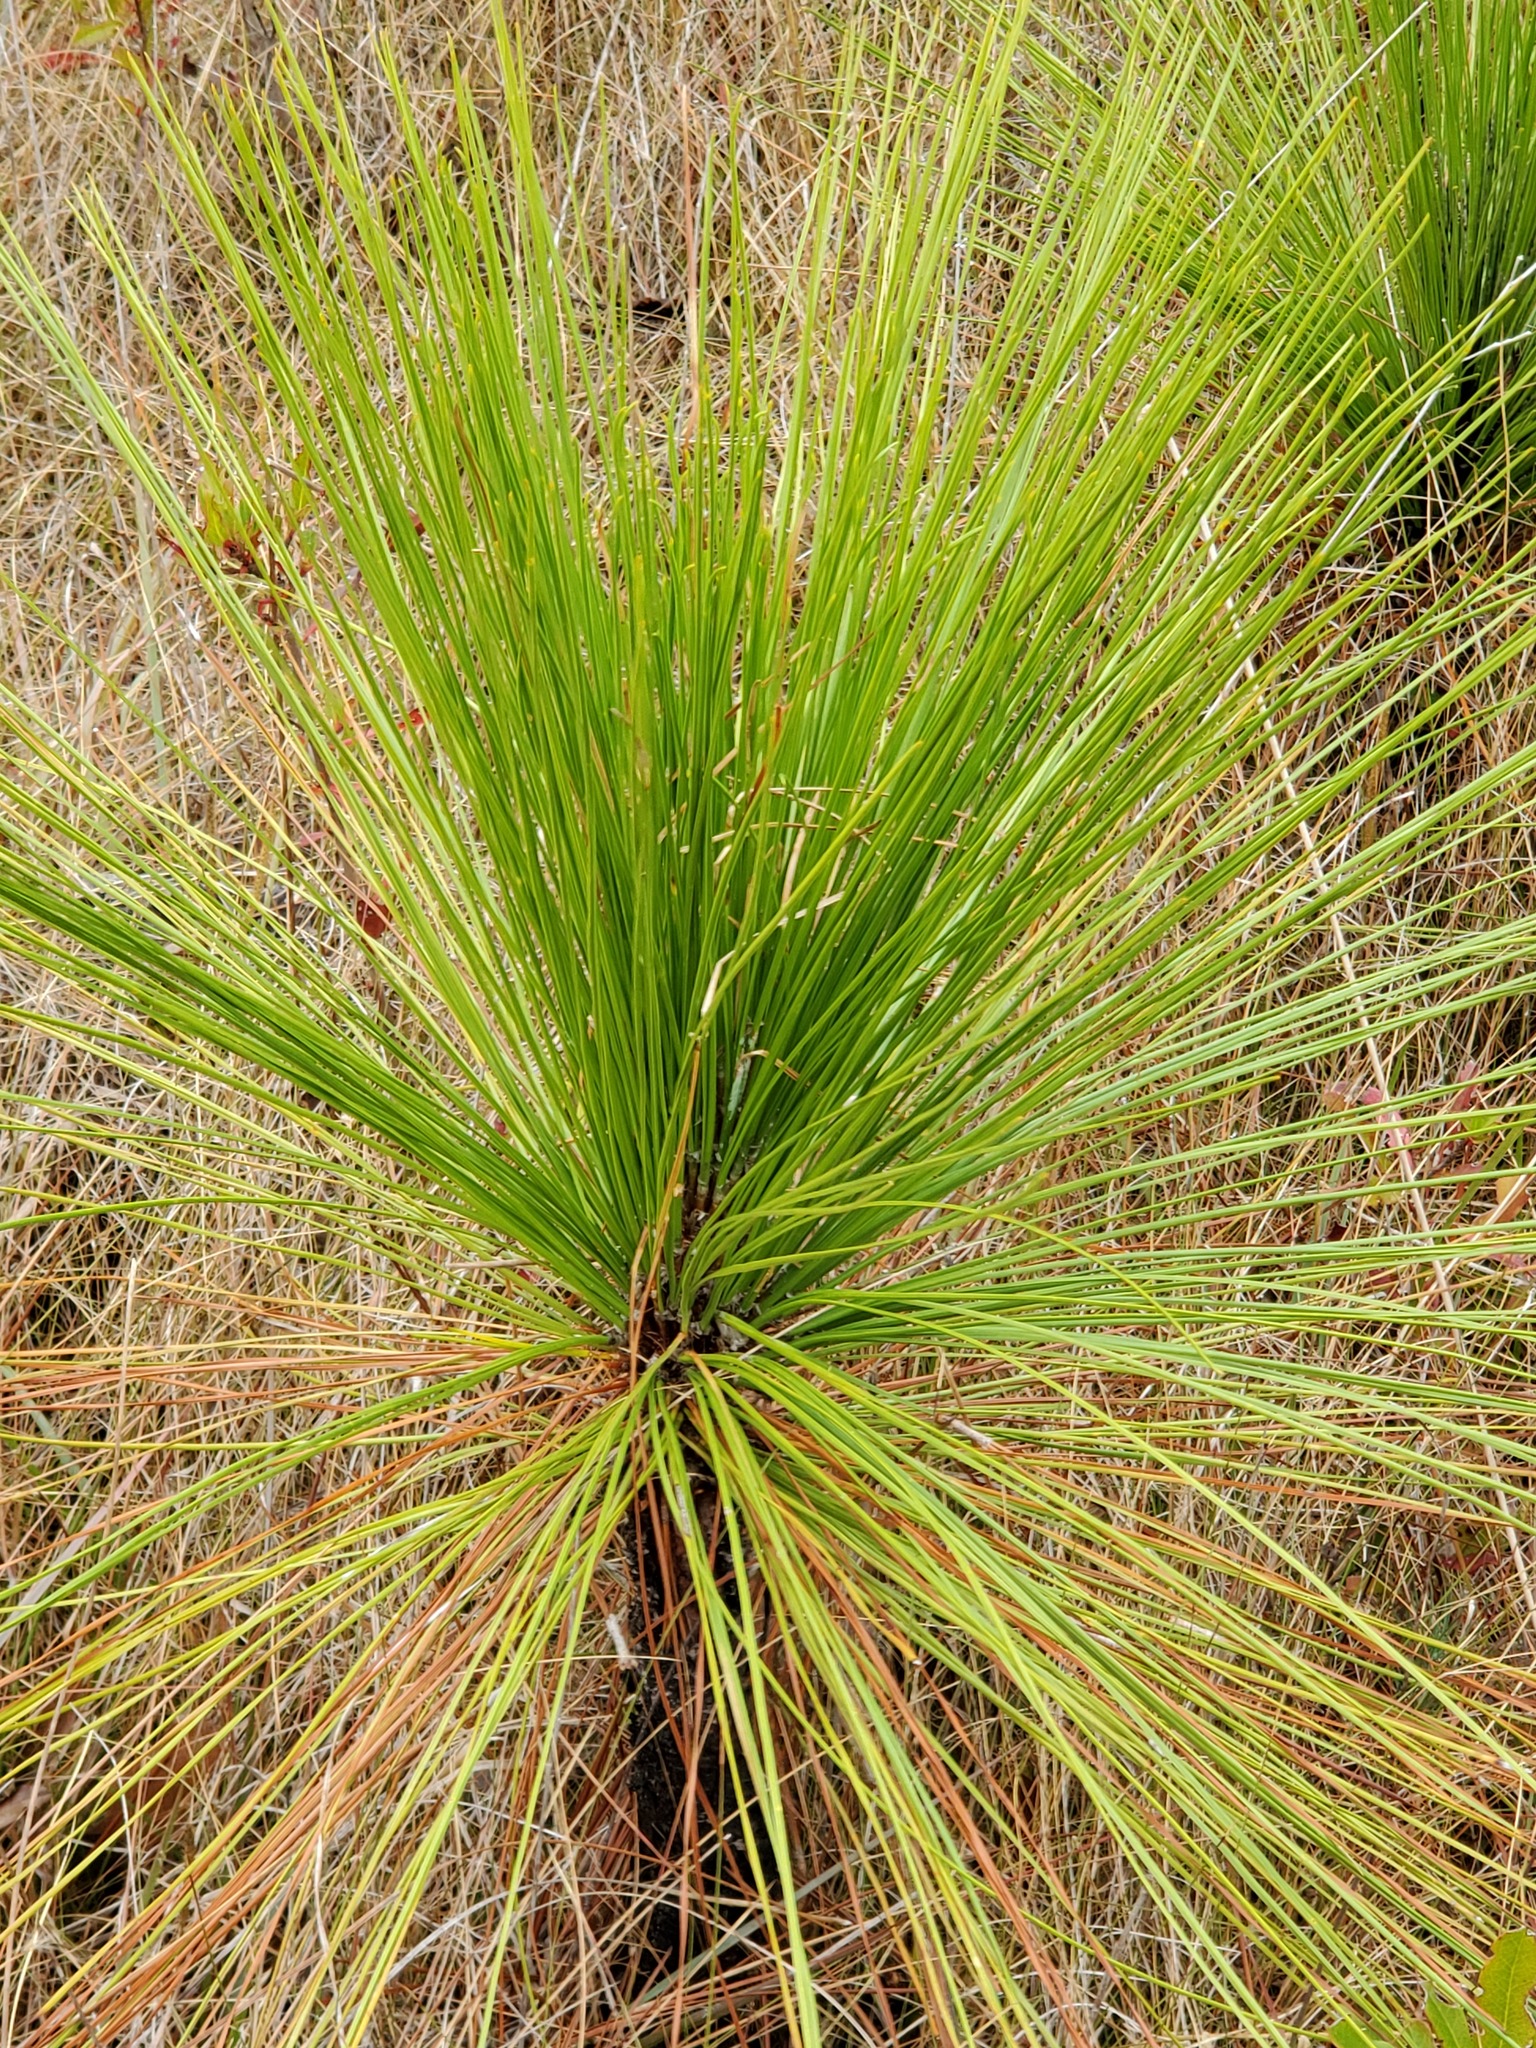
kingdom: Plantae
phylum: Tracheophyta
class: Pinopsida
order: Pinales
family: Pinaceae
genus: Pinus
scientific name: Pinus palustris
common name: Longleaf pine
